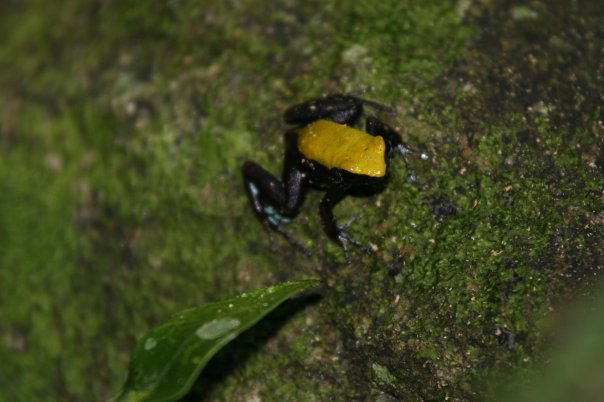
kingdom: Animalia
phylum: Chordata
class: Amphibia
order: Anura
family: Mantellidae
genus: Mantella
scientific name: Mantella laevigata
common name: Arboreal mantella
